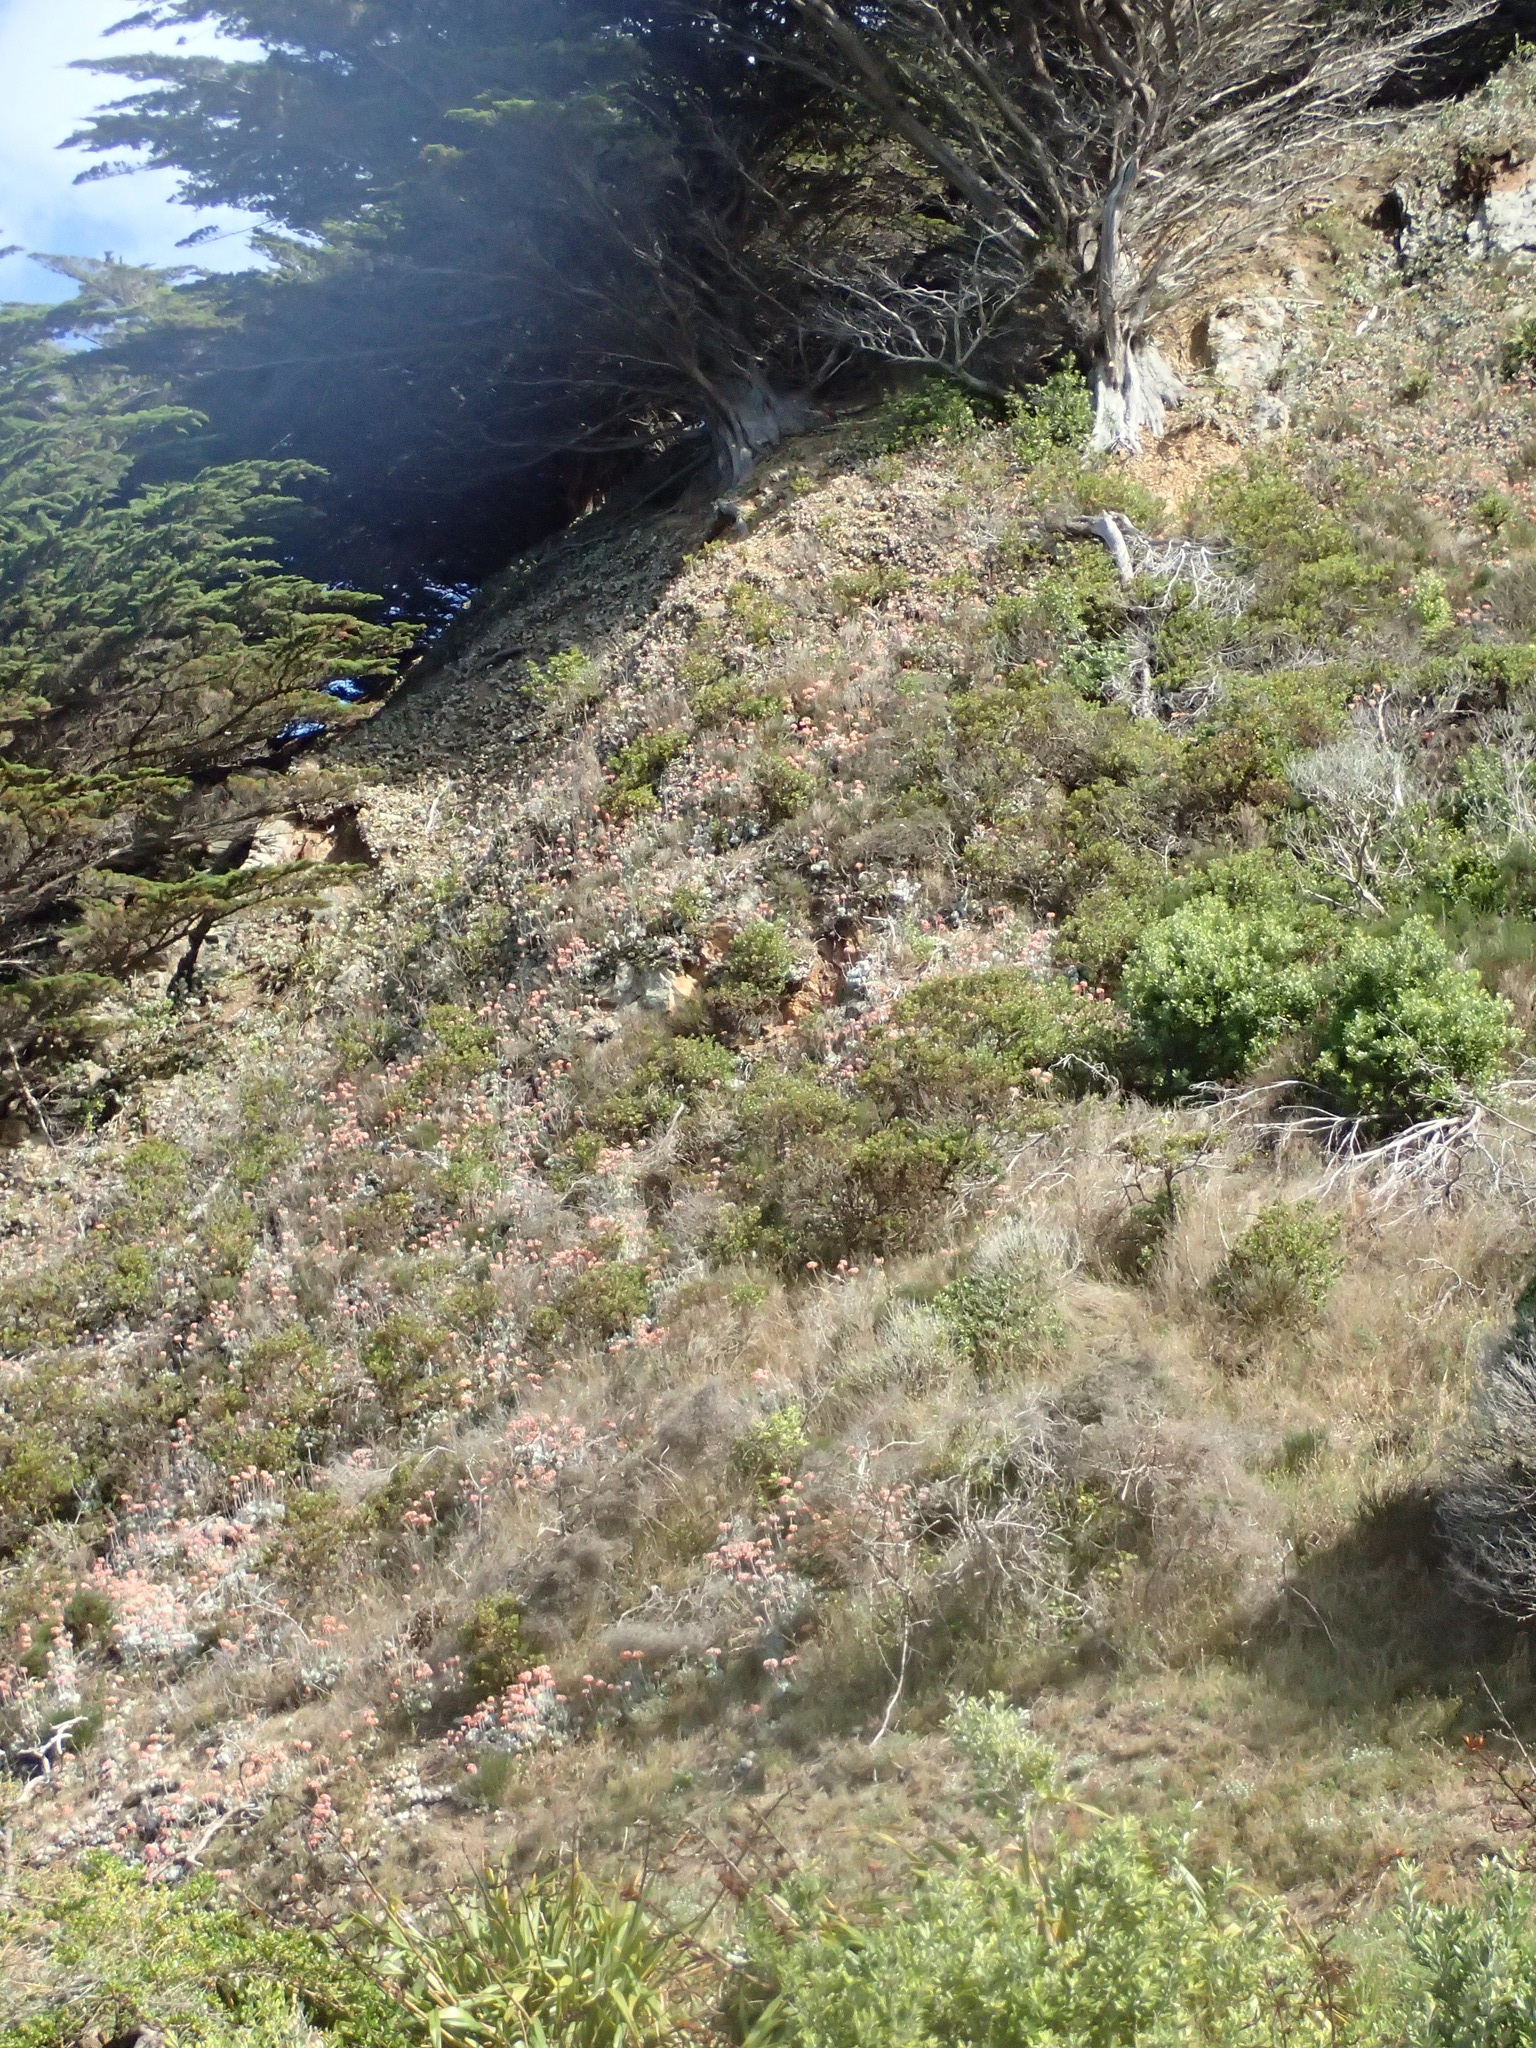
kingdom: Plantae
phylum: Tracheophyta
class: Magnoliopsida
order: Saxifragales
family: Crassulaceae
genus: Cotyledon
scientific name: Cotyledon orbiculata
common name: Pig's ear
